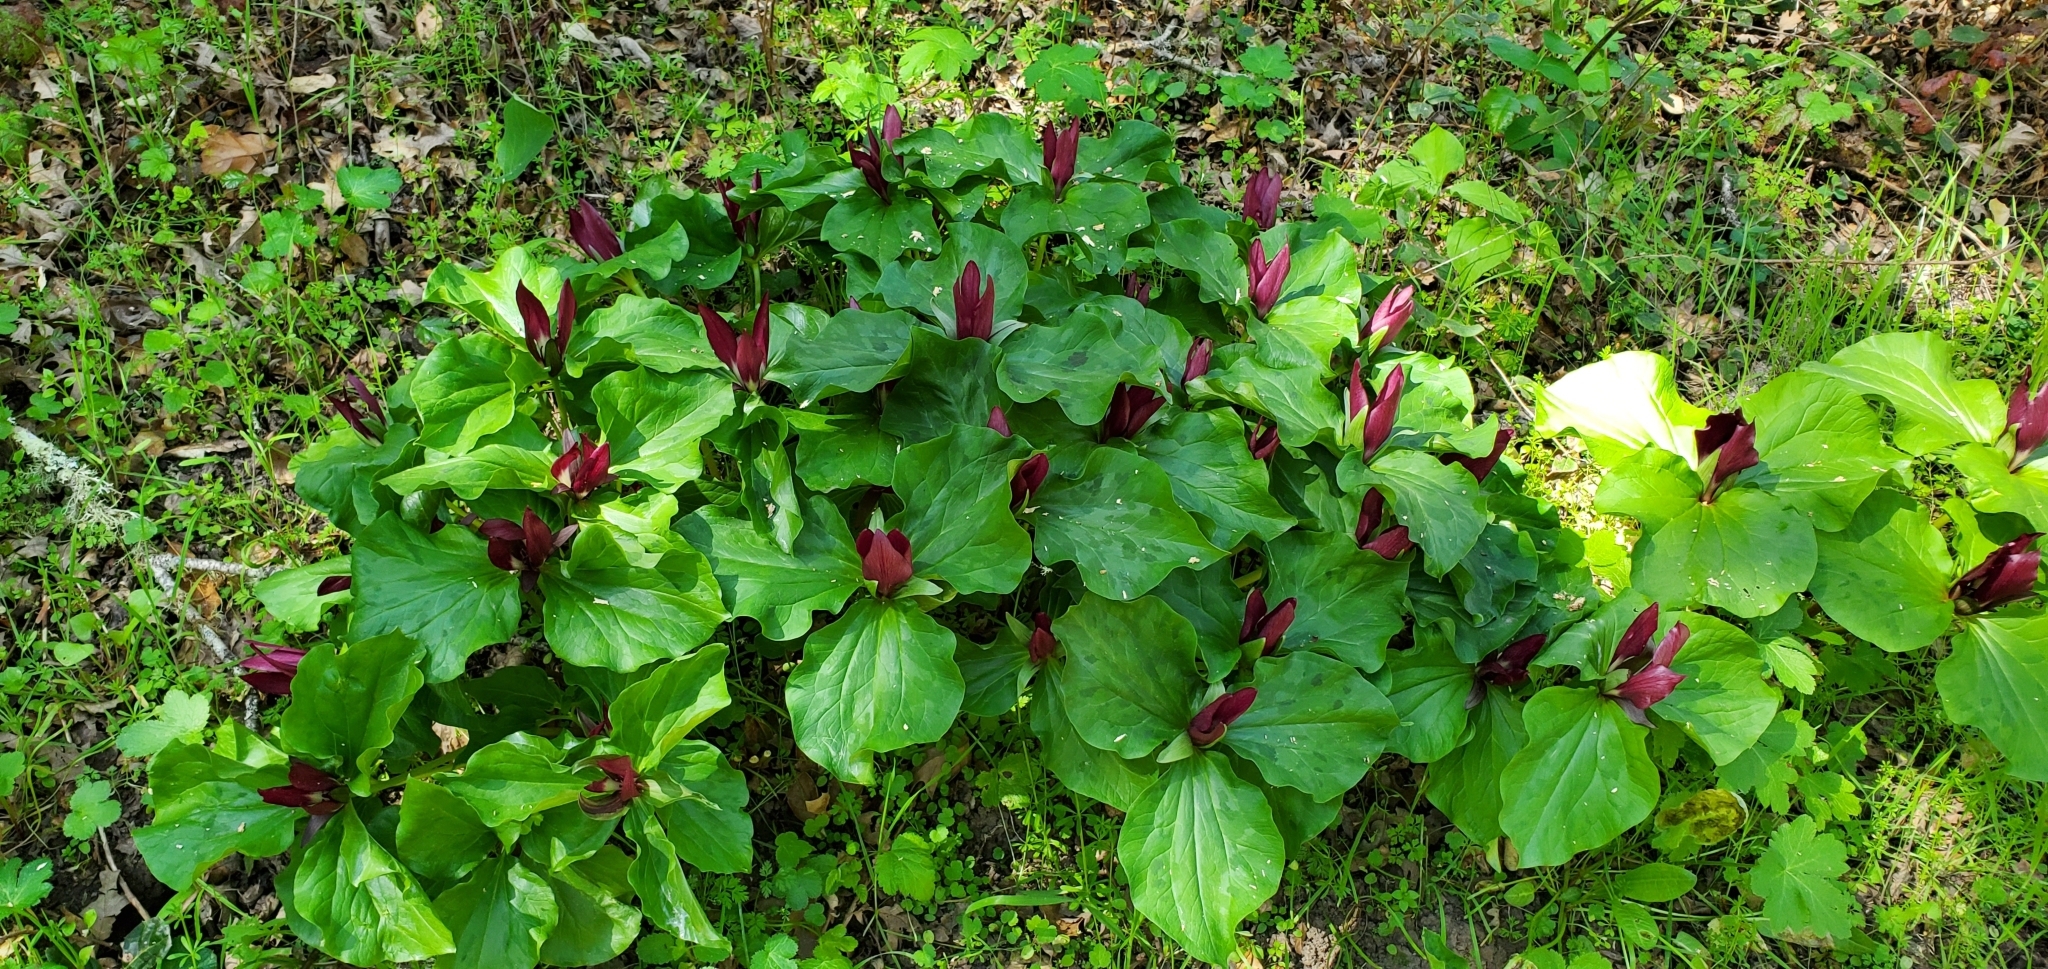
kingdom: Plantae
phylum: Tracheophyta
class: Liliopsida
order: Liliales
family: Melanthiaceae
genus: Trillium
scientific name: Trillium chloropetalum
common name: Giant trillium
